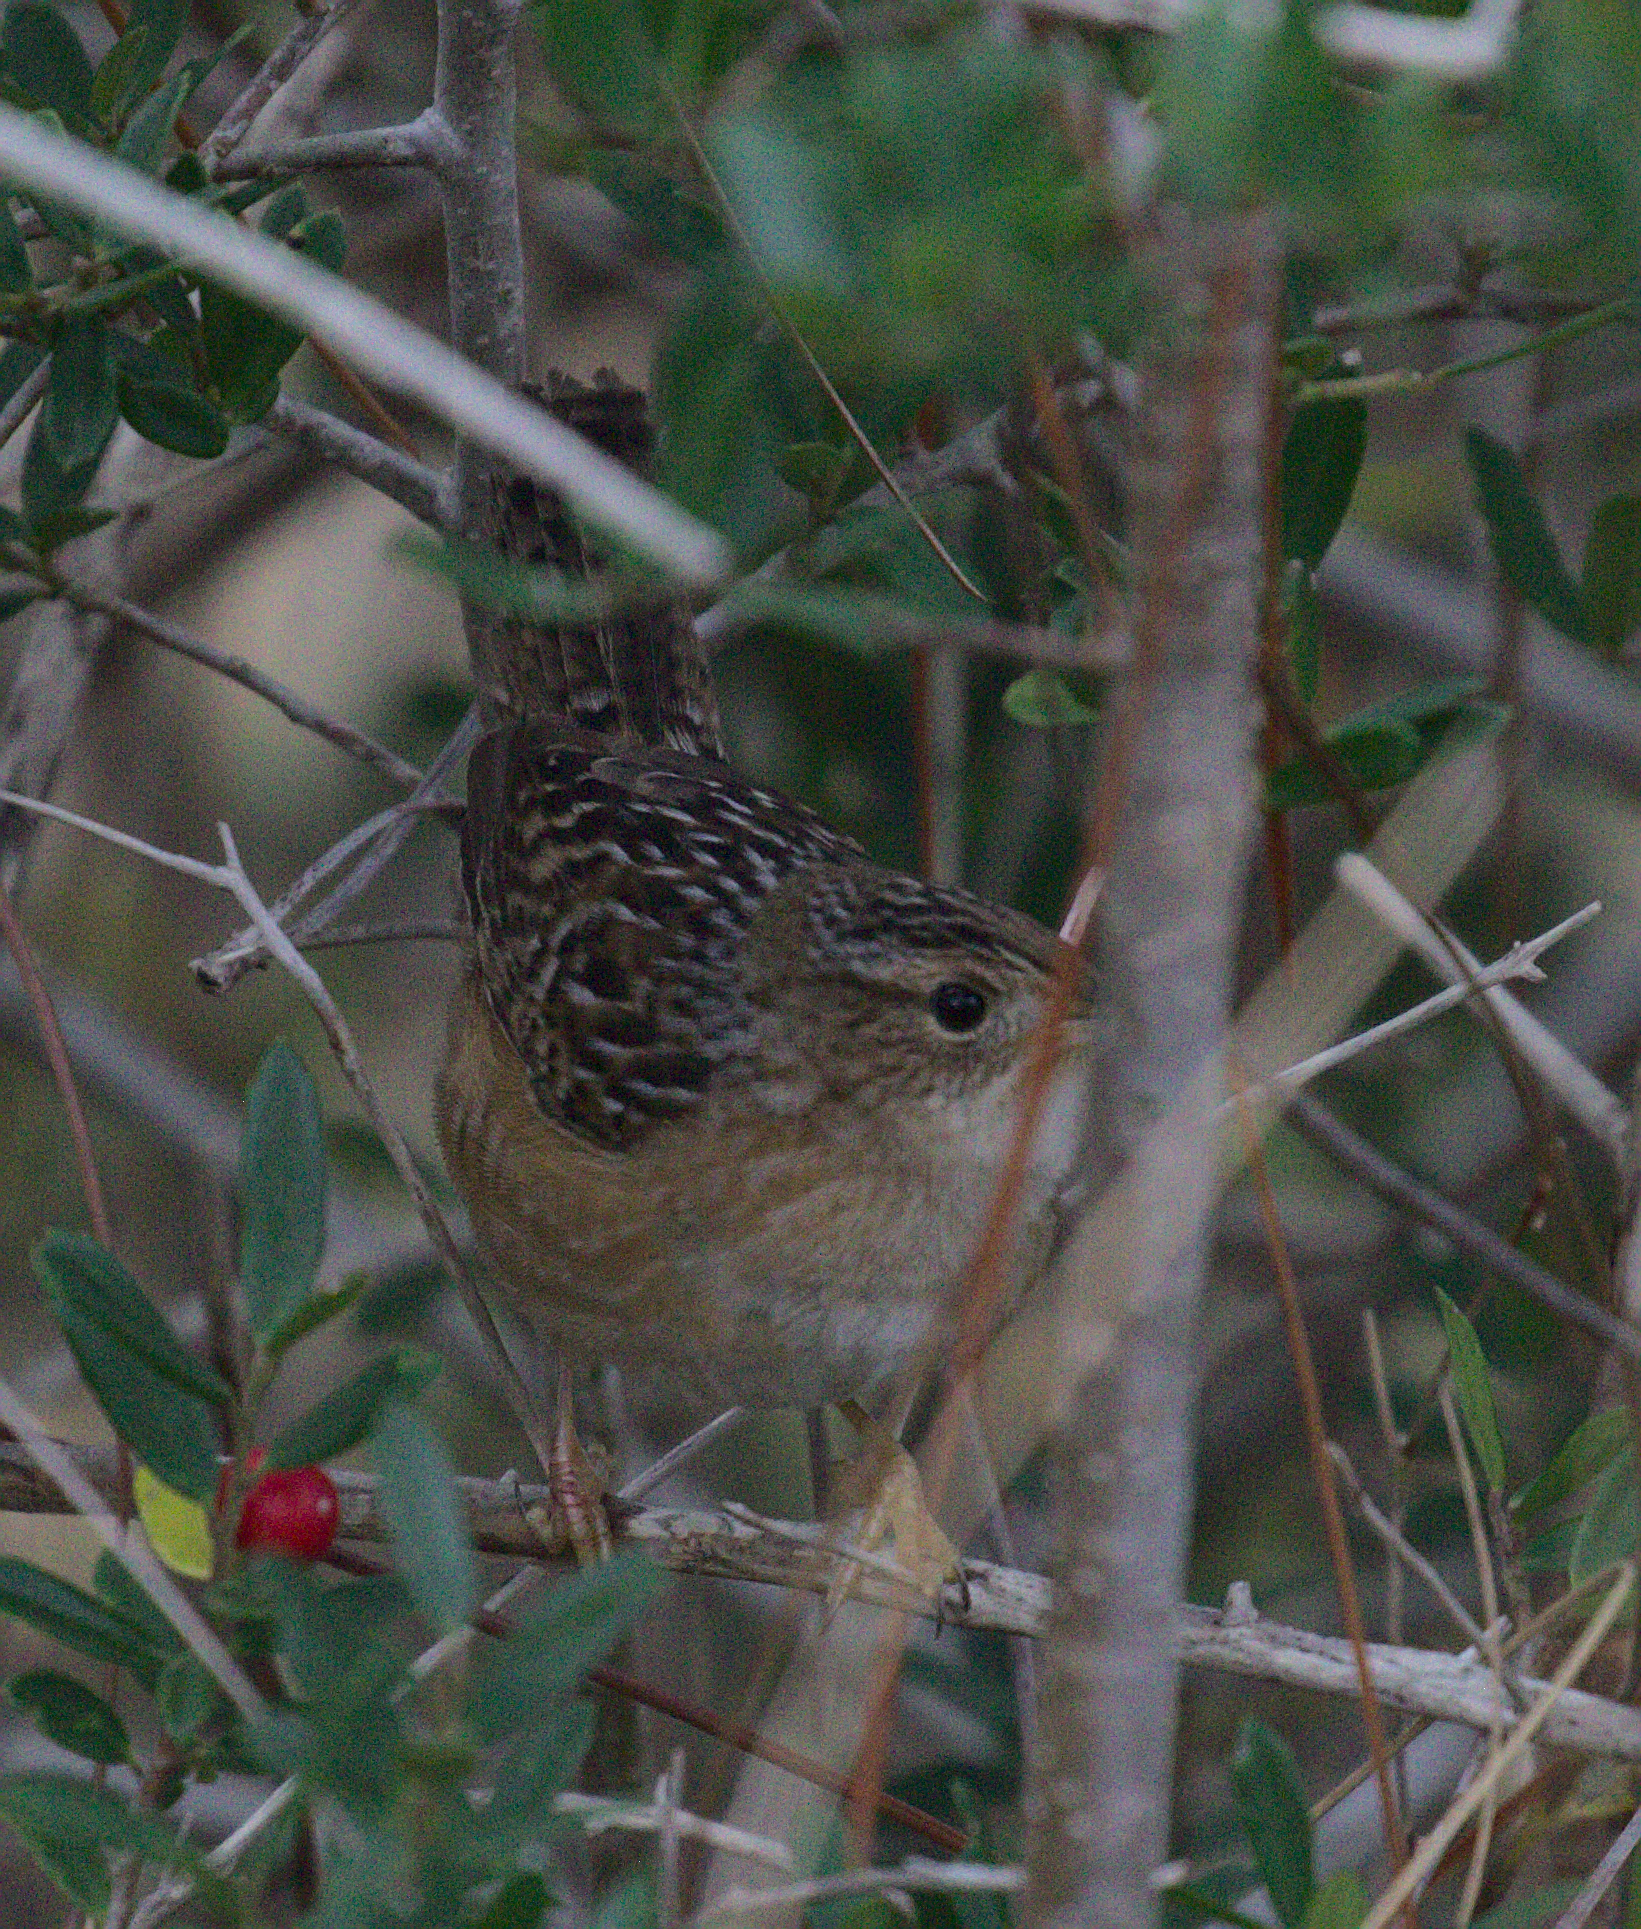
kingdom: Animalia
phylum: Chordata
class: Aves
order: Passeriformes
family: Troglodytidae
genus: Cistothorus
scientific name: Cistothorus platensis
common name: Sedge wren
